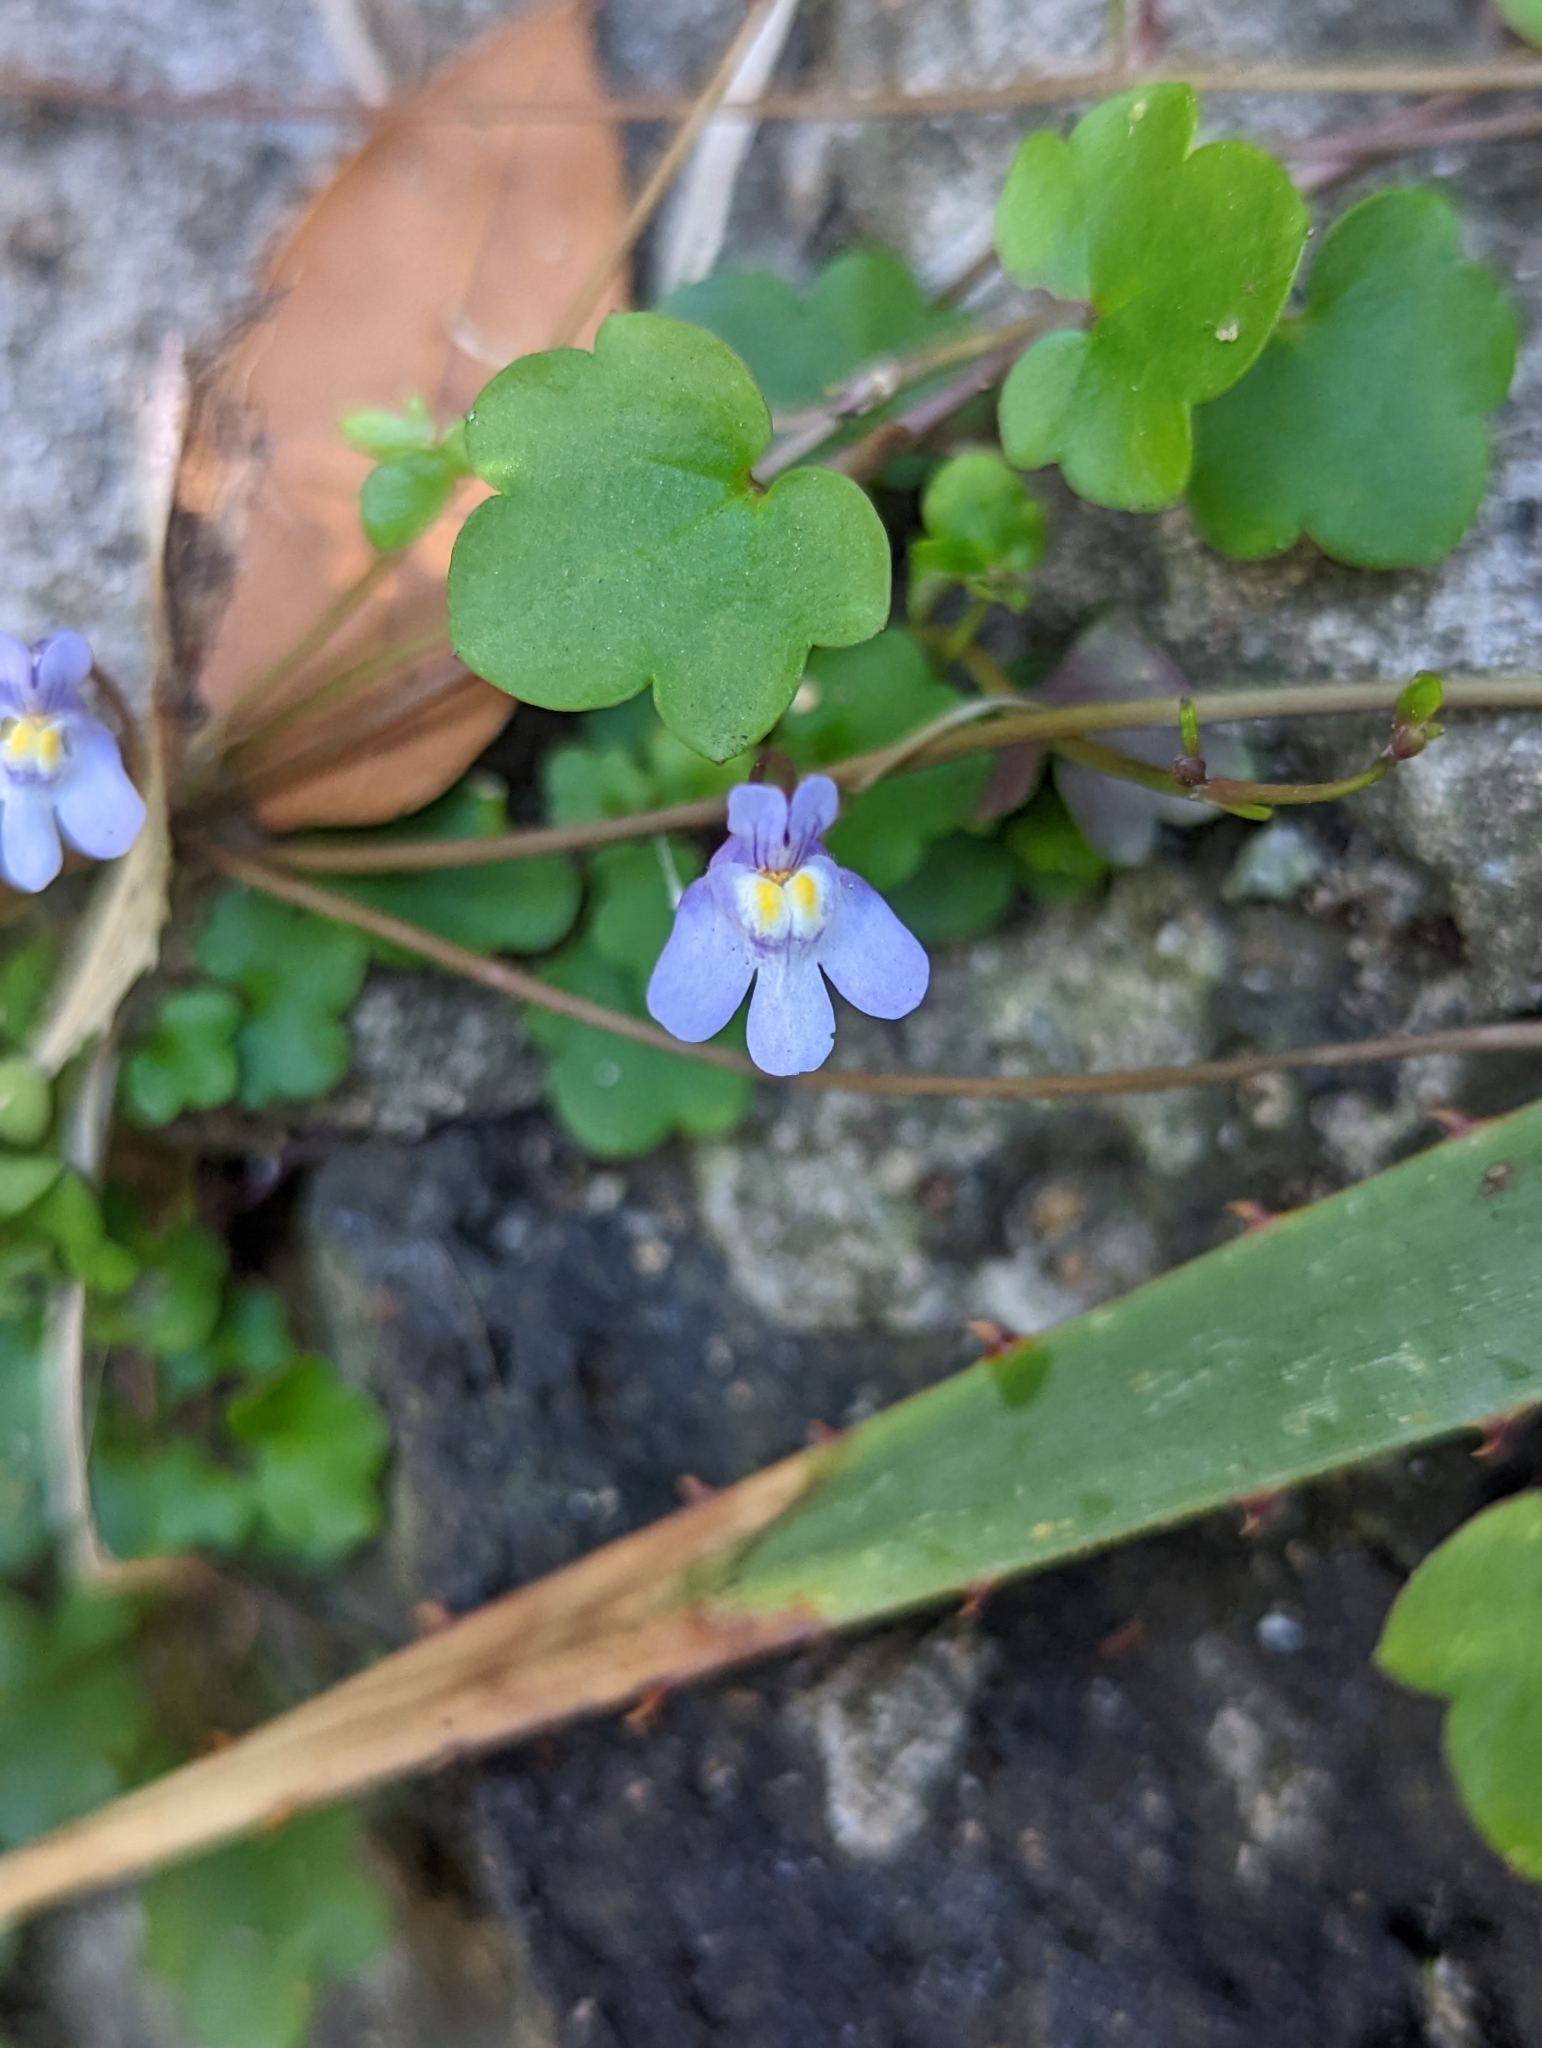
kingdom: Plantae
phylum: Tracheophyta
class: Magnoliopsida
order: Lamiales
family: Plantaginaceae
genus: Cymbalaria
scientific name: Cymbalaria muralis
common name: Ivy-leaved toadflax
